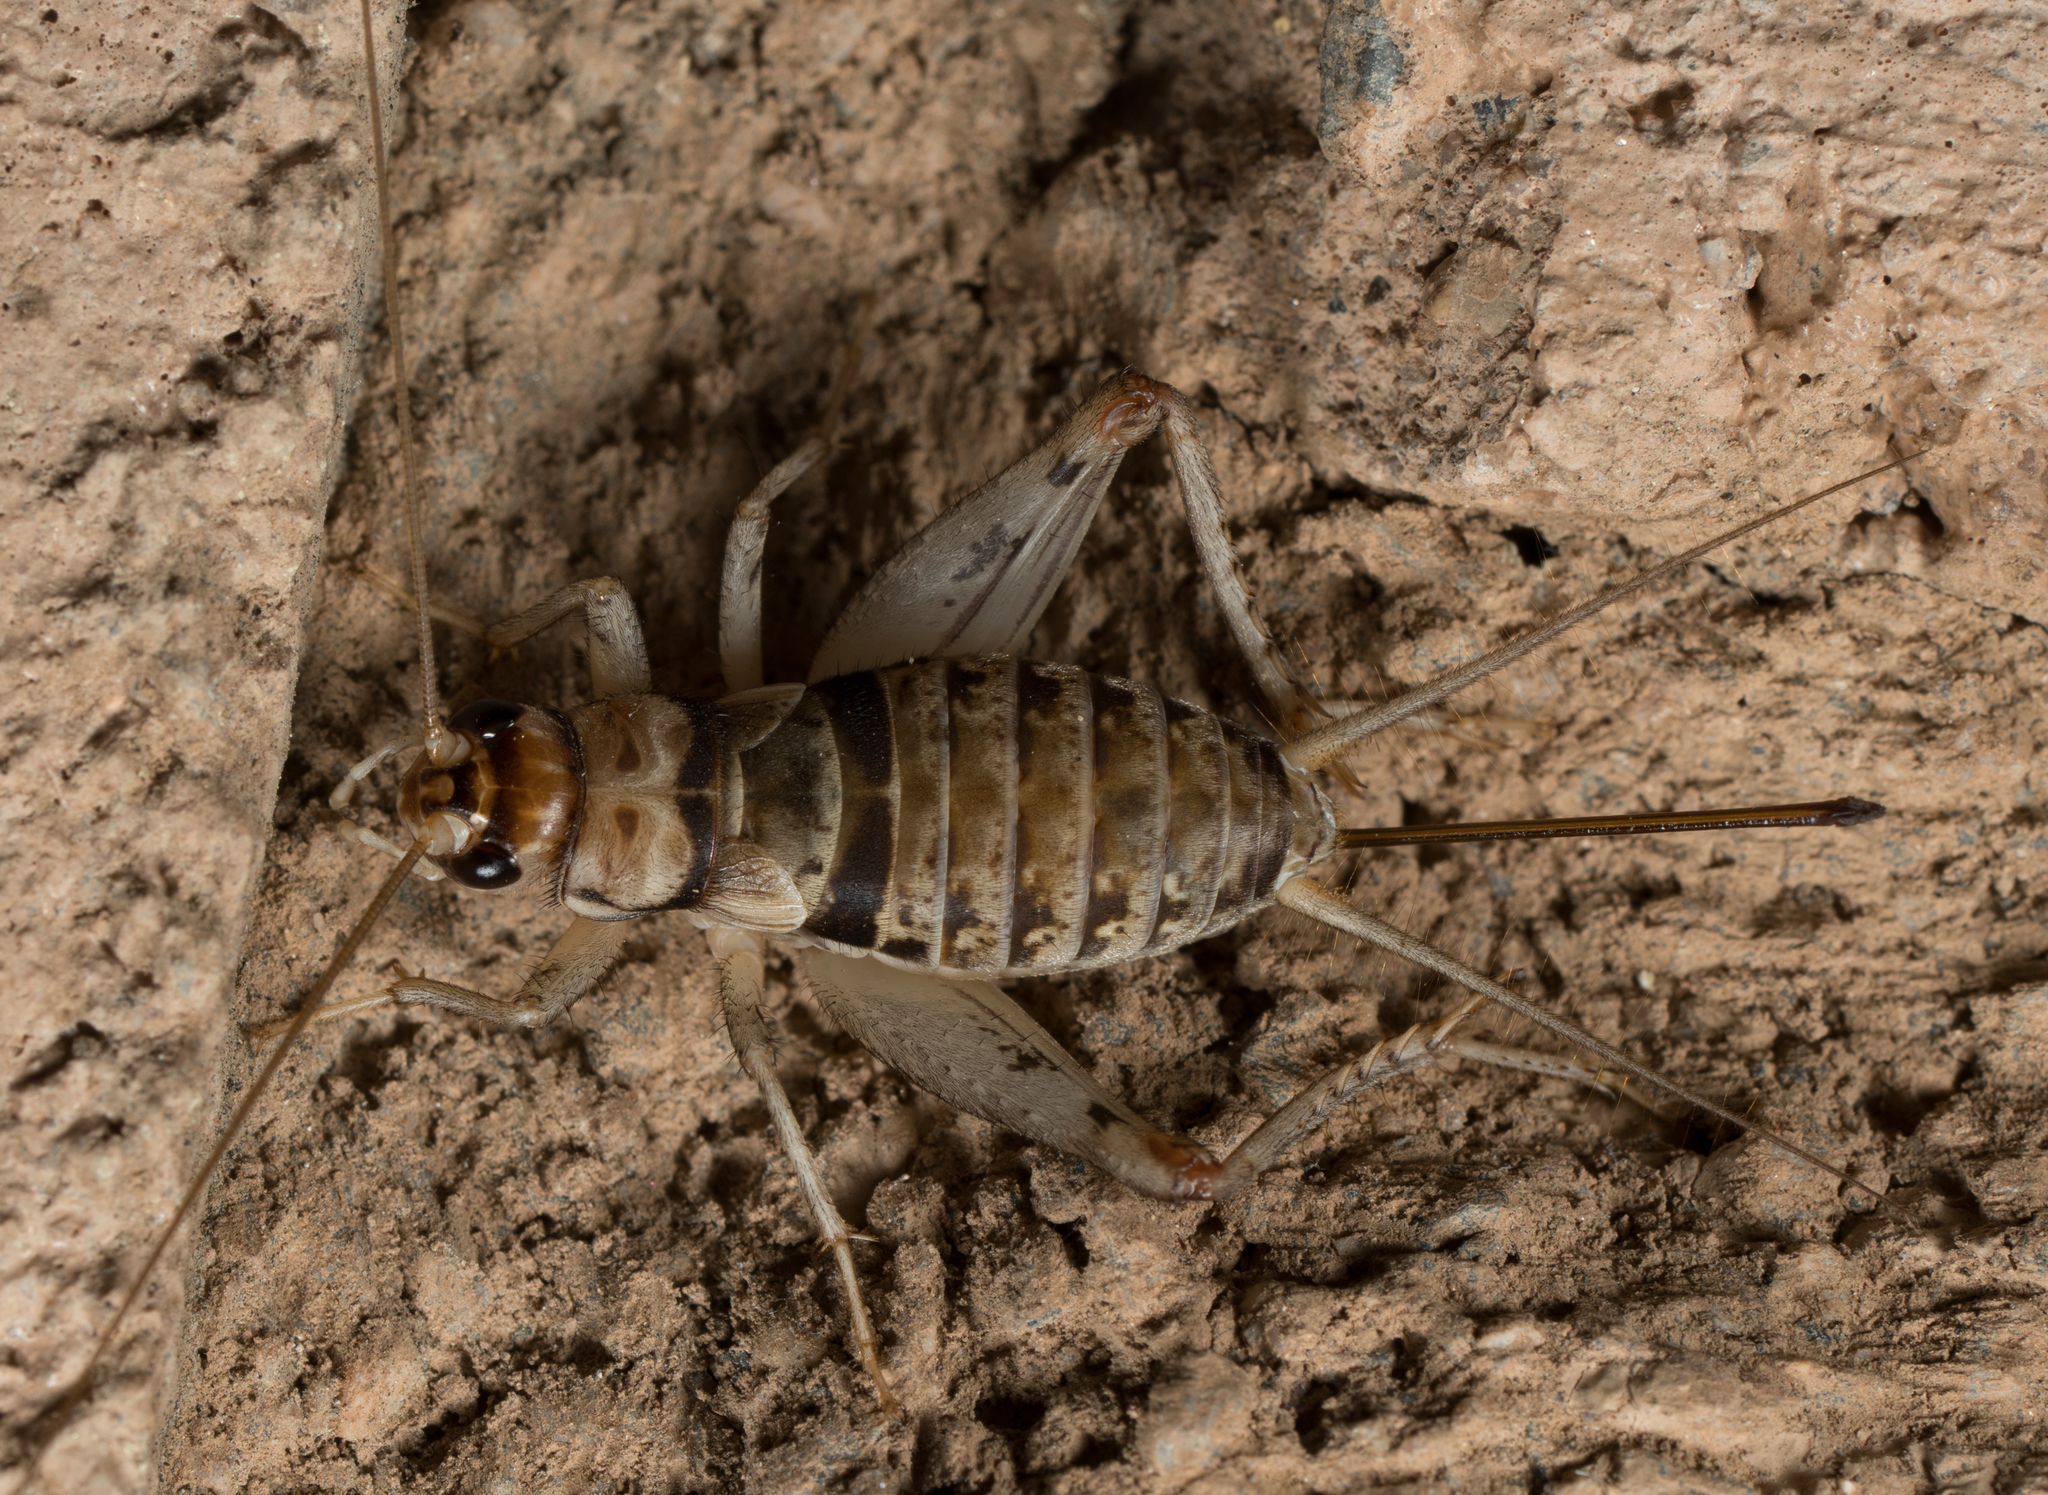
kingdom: Animalia
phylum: Arthropoda
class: Insecta
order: Orthoptera
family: Gryllidae
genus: Gryllodes
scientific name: Gryllodes sigillatus
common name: Tropical house cricket
